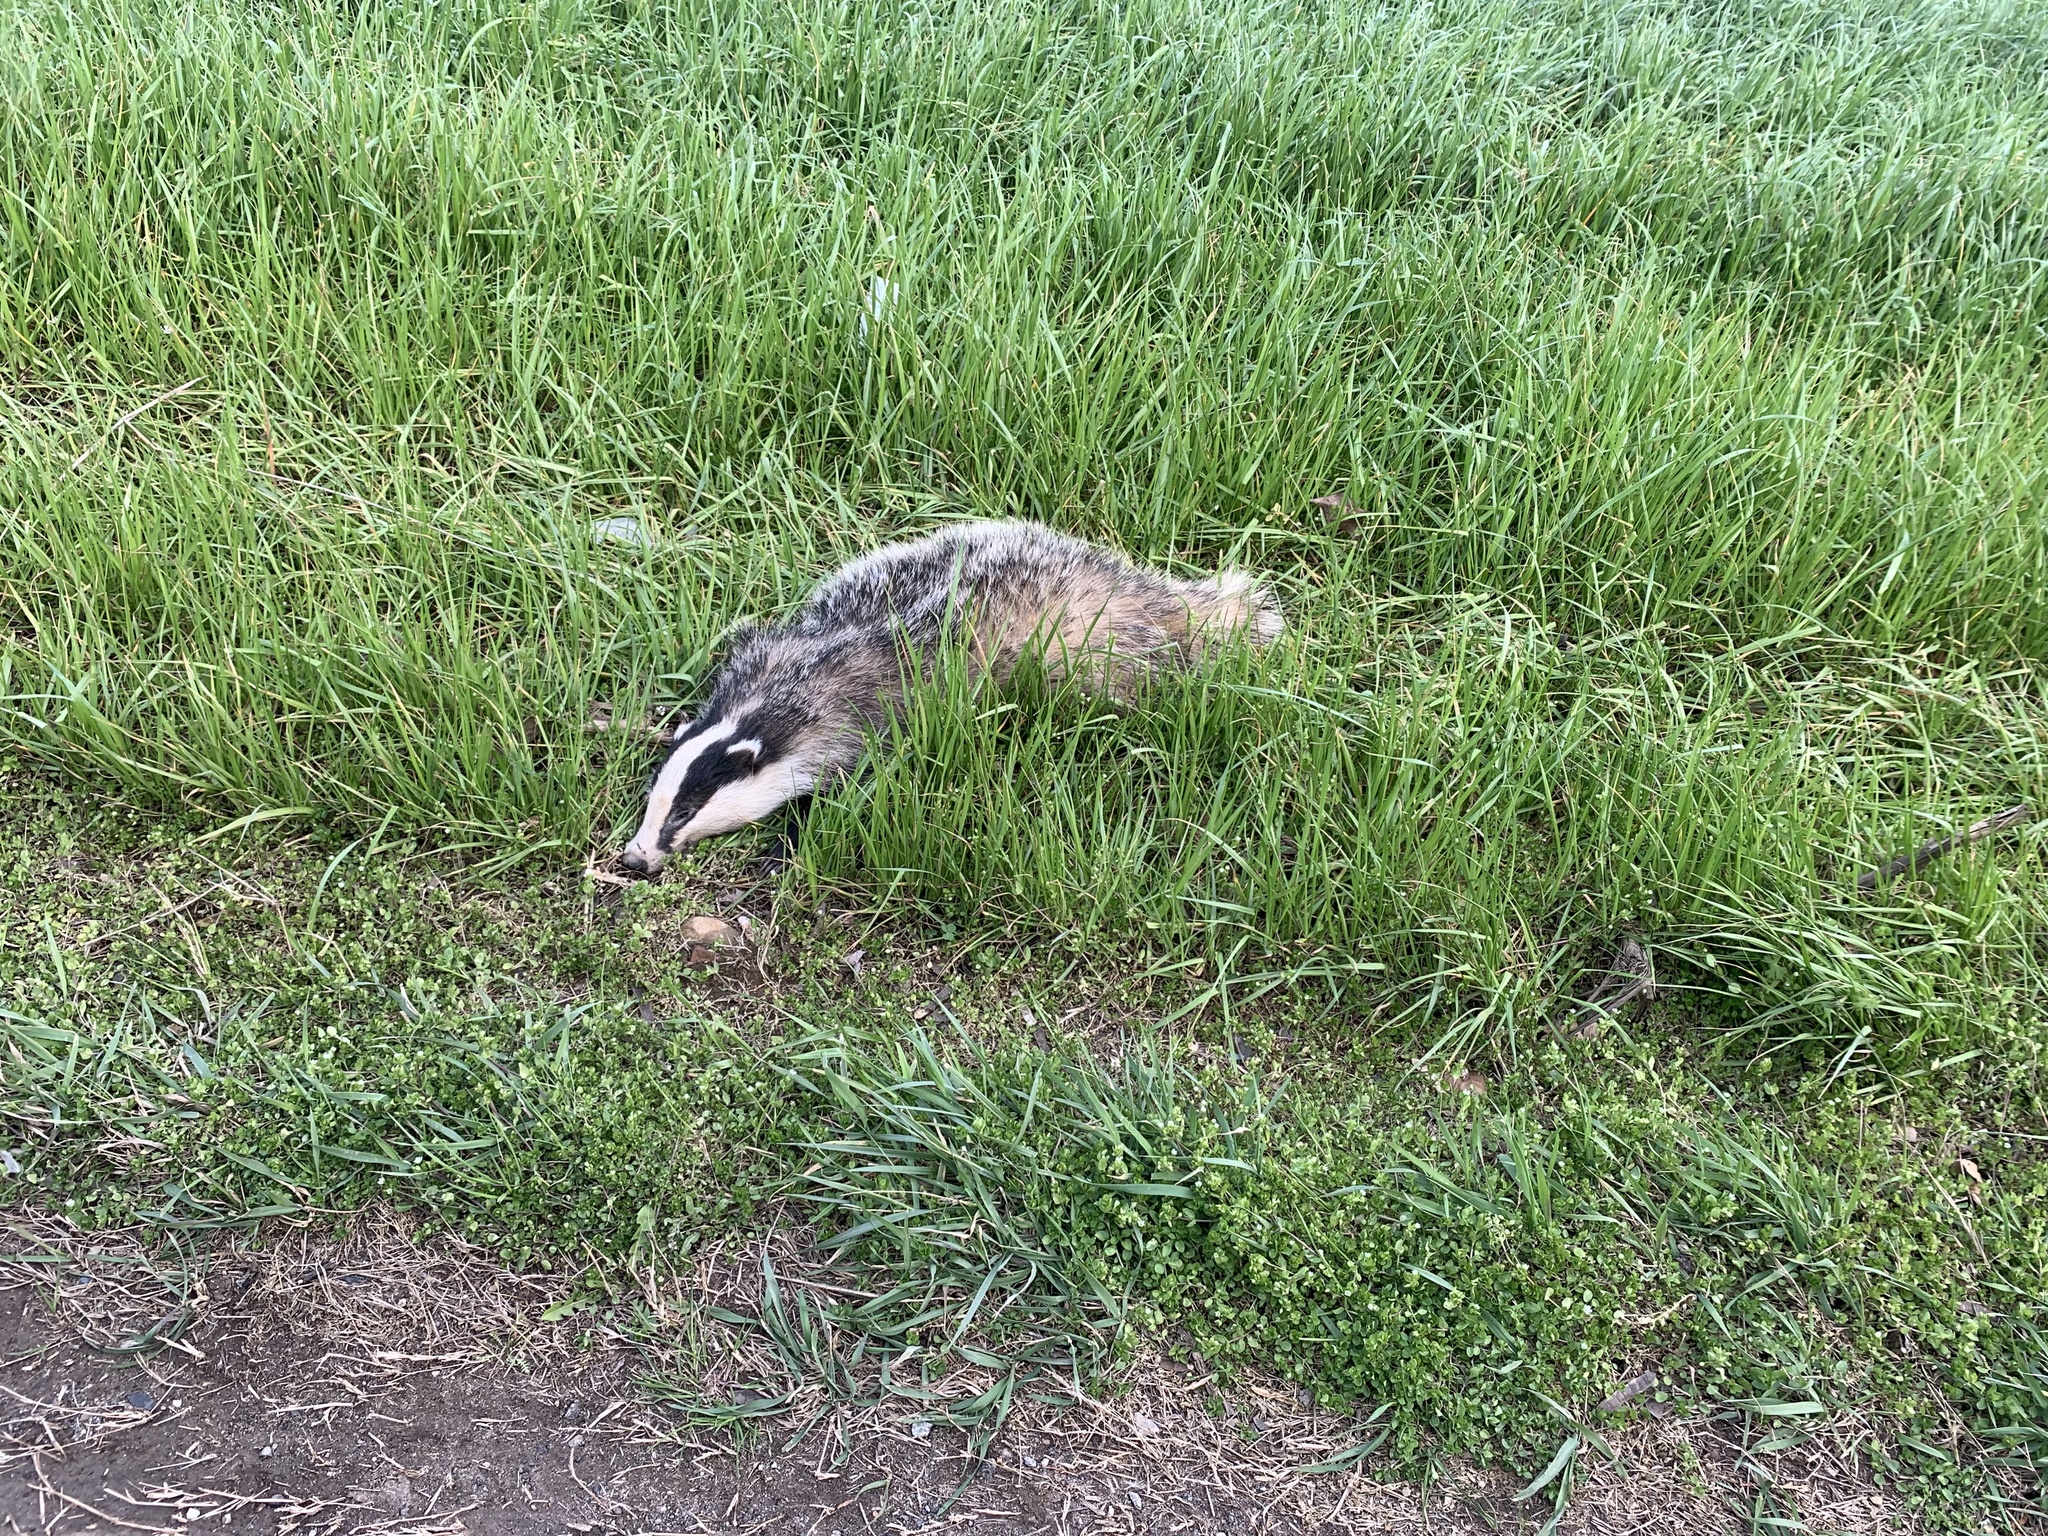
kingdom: Animalia
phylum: Chordata
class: Mammalia
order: Carnivora
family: Mustelidae
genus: Meles
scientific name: Meles meles
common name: Eurasian badger
